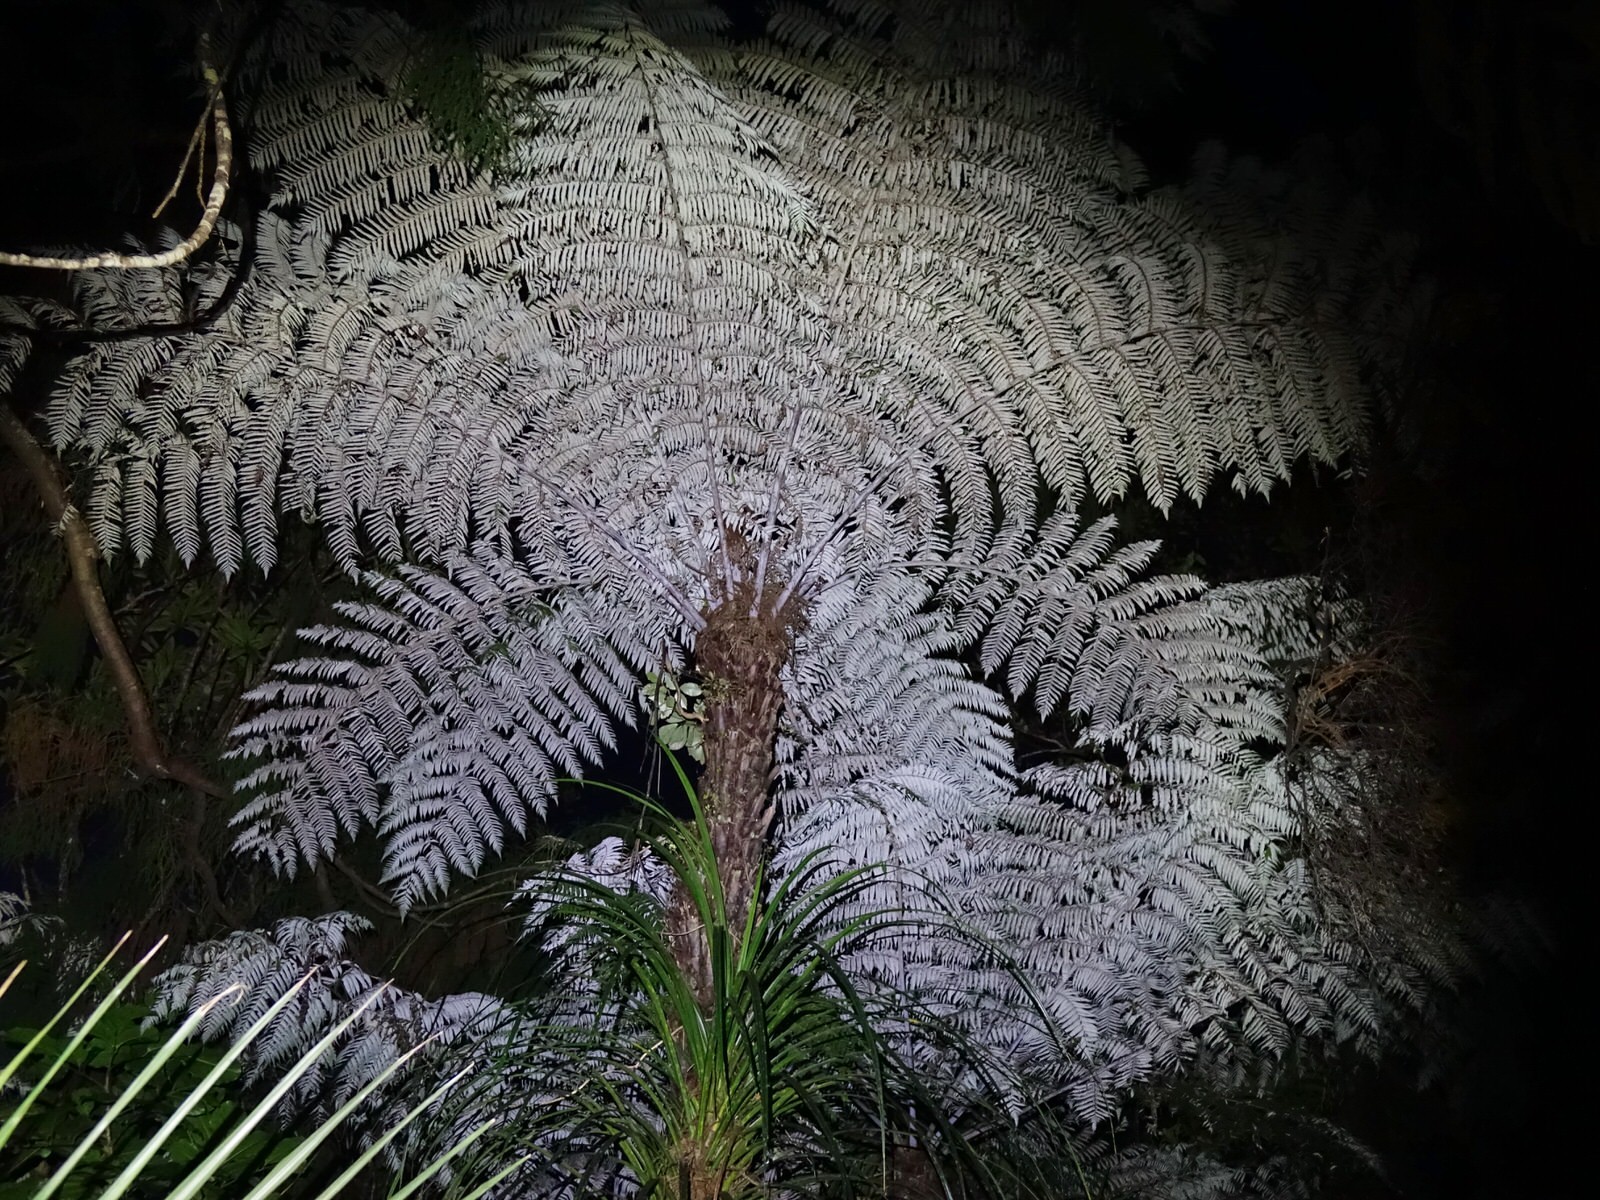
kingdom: Plantae
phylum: Tracheophyta
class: Polypodiopsida
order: Cyatheales
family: Cyatheaceae
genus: Alsophila
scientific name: Alsophila dealbata
